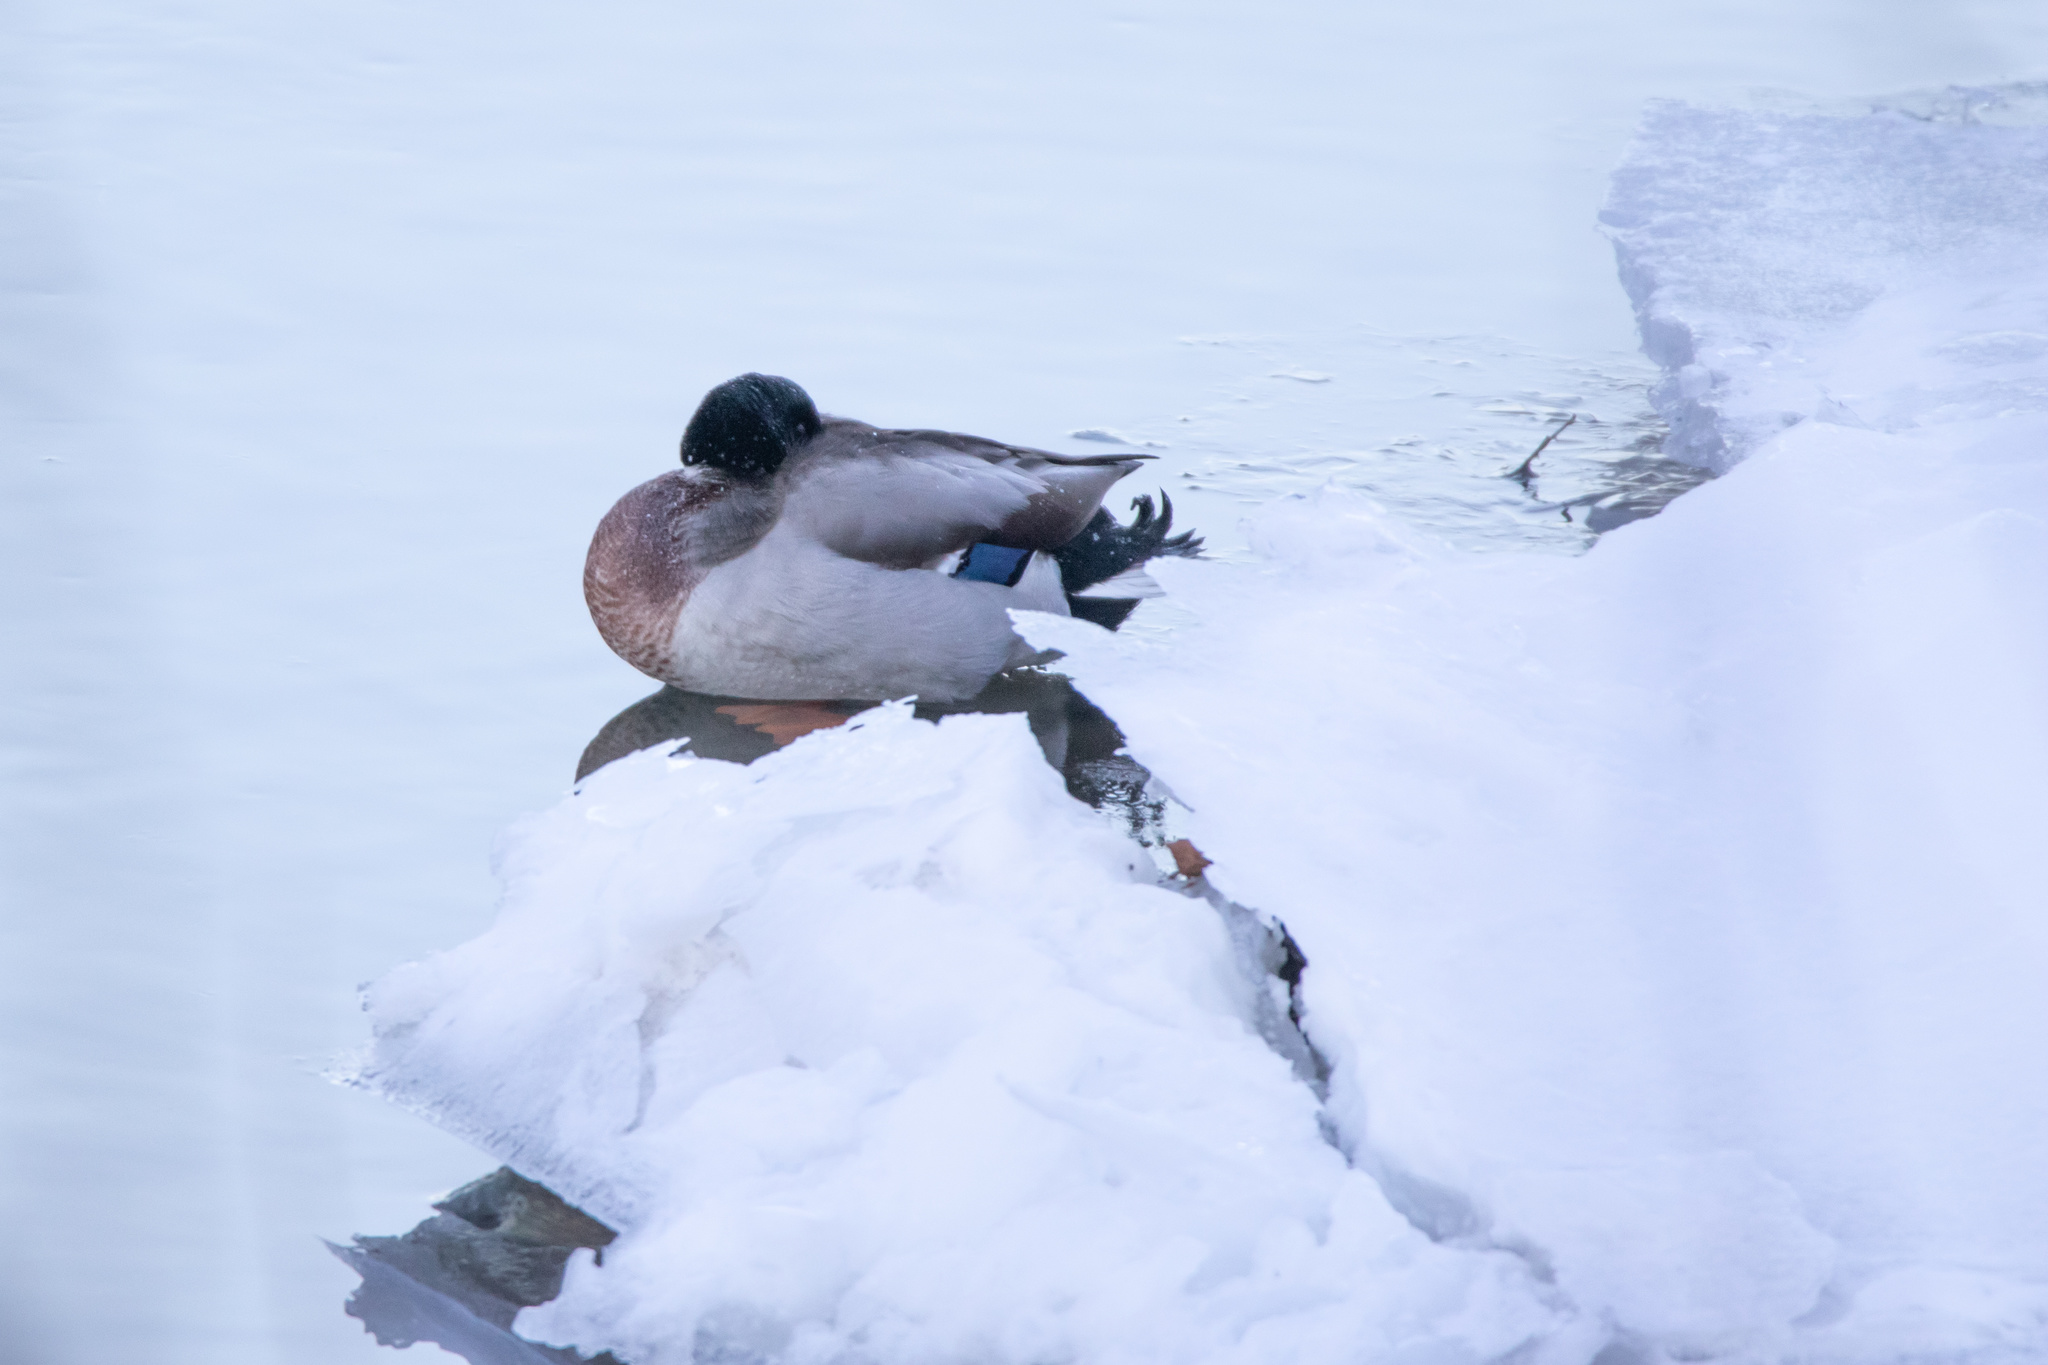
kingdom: Animalia
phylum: Chordata
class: Aves
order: Anseriformes
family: Anatidae
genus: Anas
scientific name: Anas platyrhynchos
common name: Mallard
